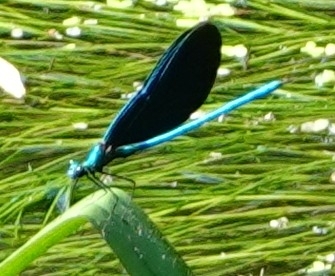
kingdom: Animalia
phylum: Arthropoda
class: Insecta
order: Odonata
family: Calopterygidae
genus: Calopteryx
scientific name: Calopteryx virgo
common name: Beautiful demoiselle
